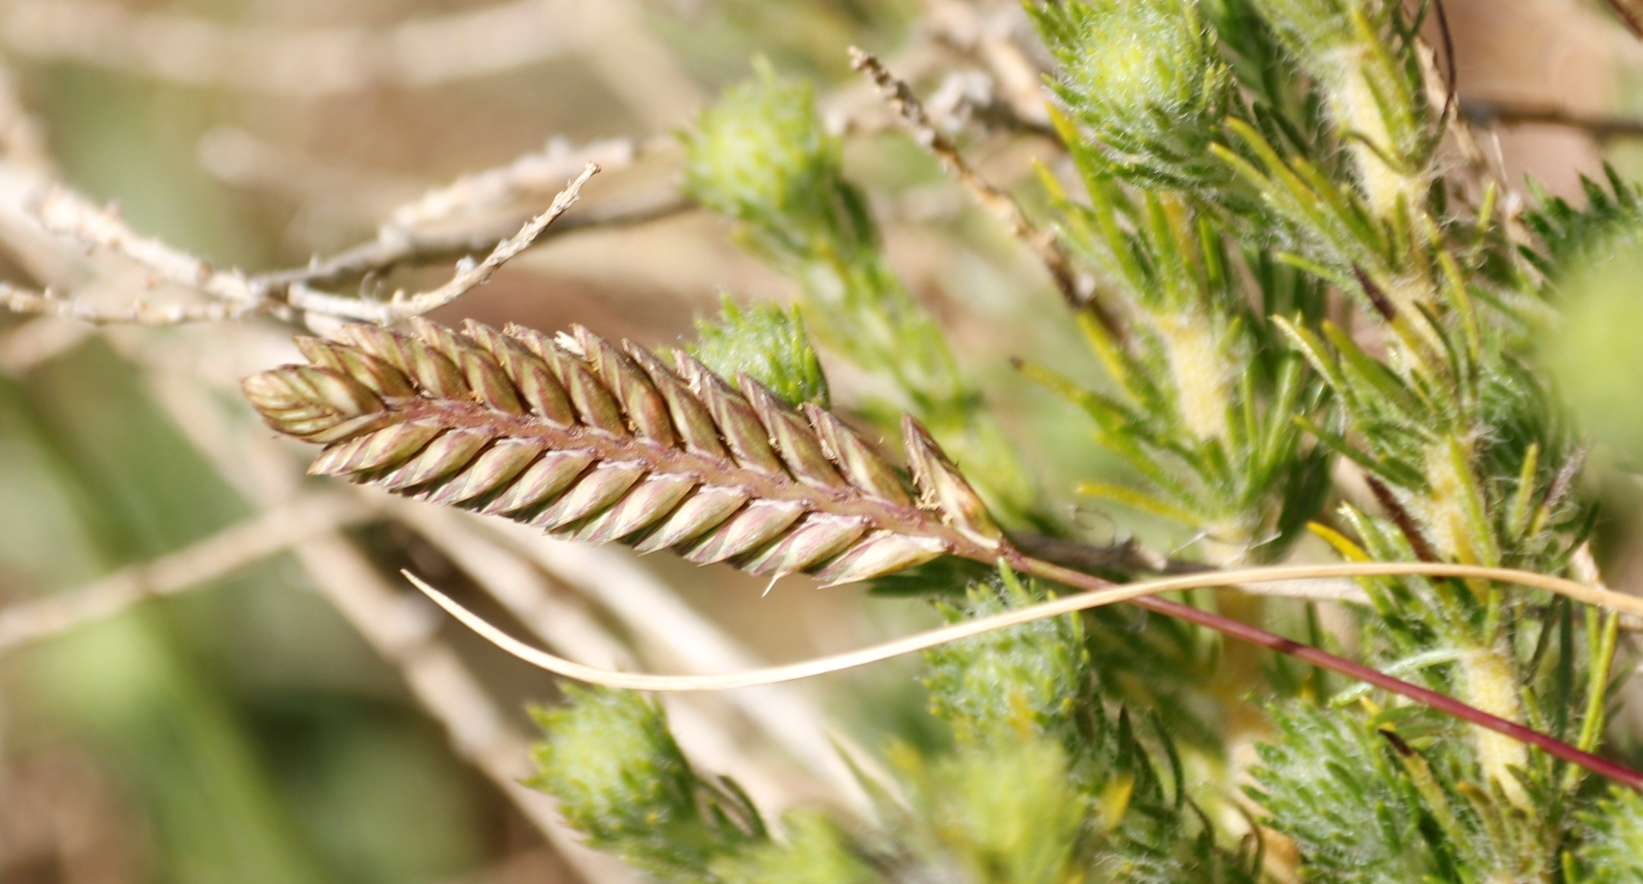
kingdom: Plantae
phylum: Tracheophyta
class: Liliopsida
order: Poales
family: Poaceae
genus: Tribolium
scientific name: Tribolium uniolae
